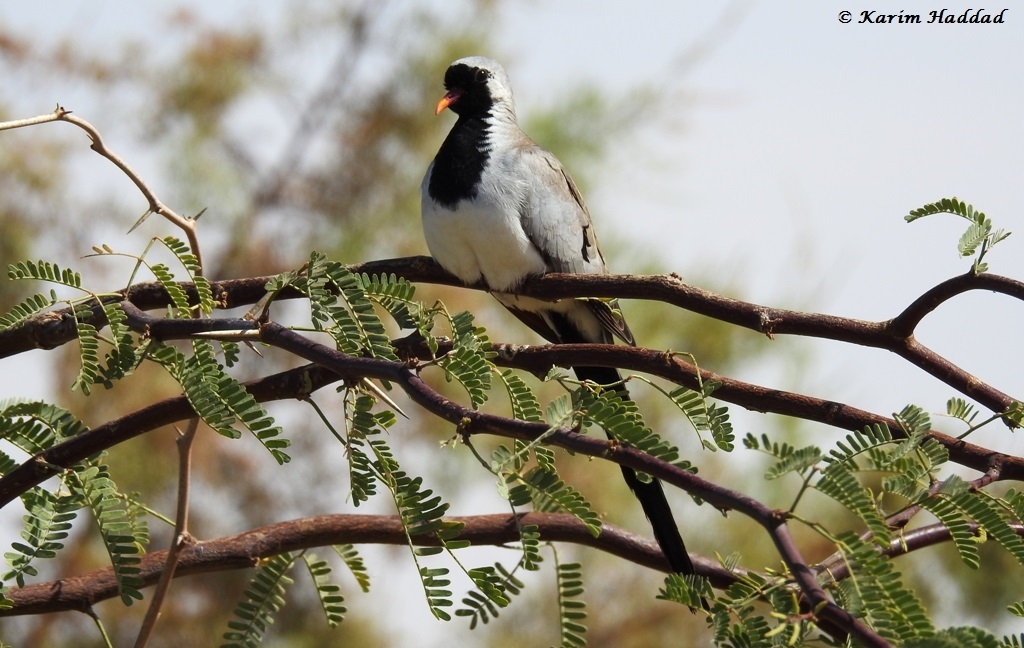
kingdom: Animalia
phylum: Chordata
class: Aves
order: Columbiformes
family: Columbidae
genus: Oena
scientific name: Oena capensis
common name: Namaqua dove
